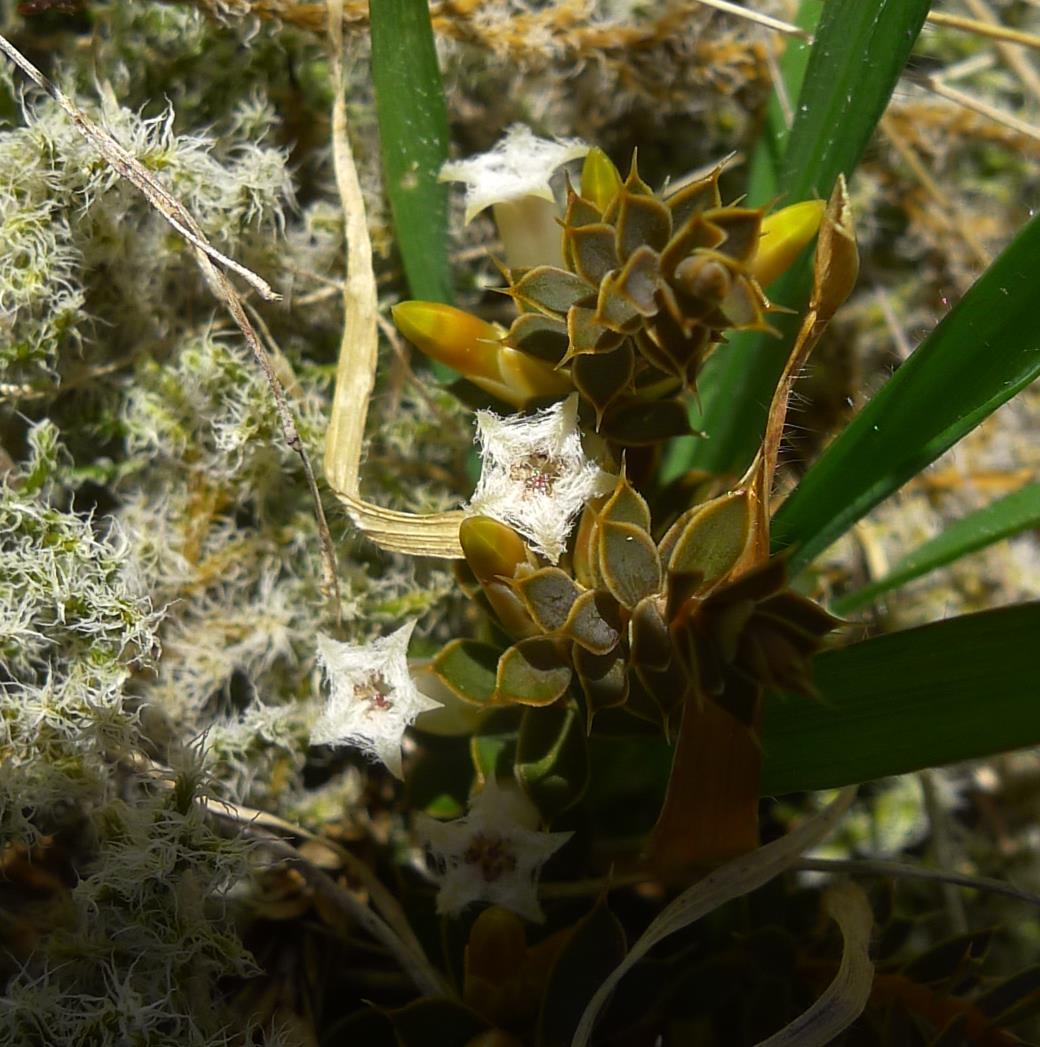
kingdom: Plantae
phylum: Tracheophyta
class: Magnoliopsida
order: Ericales
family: Ericaceae
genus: Styphelia
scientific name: Styphelia nesophila
